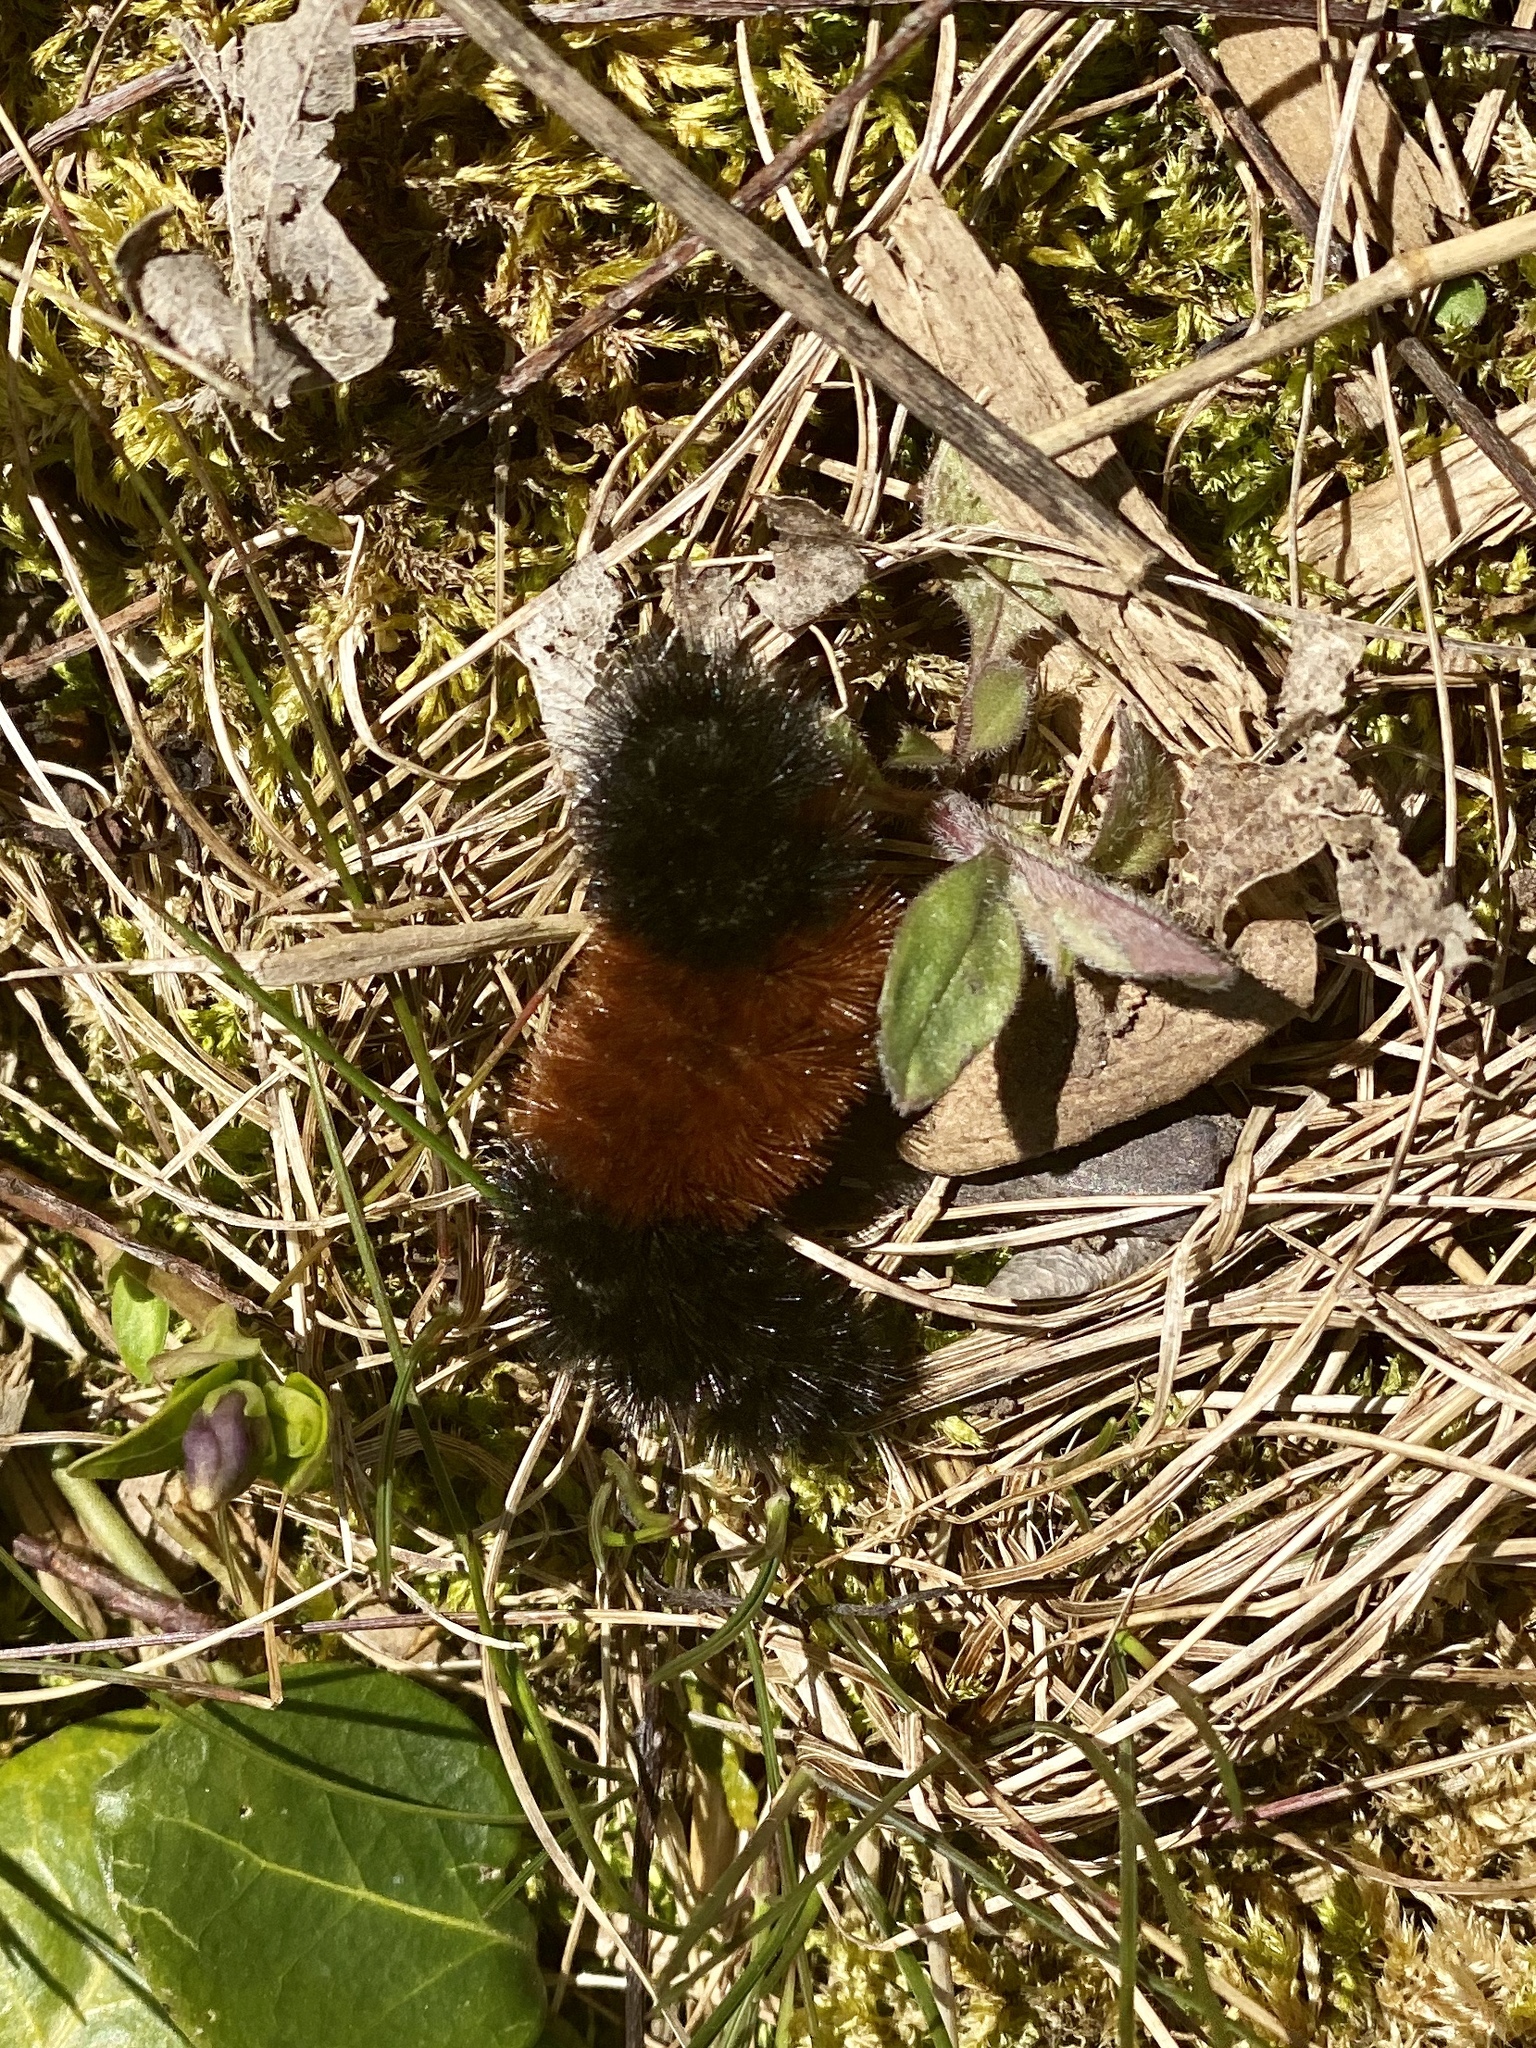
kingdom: Animalia
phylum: Arthropoda
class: Insecta
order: Lepidoptera
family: Erebidae
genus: Pyrrharctia
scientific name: Pyrrharctia isabella
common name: Isabella tiger moth
